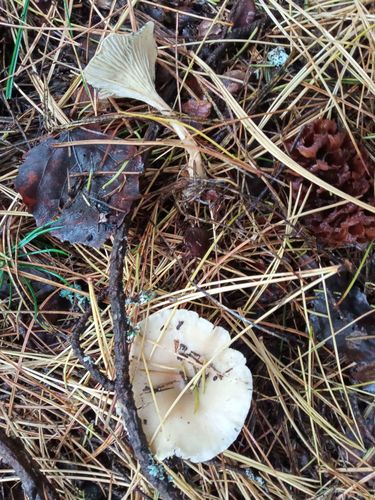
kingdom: Fungi
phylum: Basidiomycota
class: Agaricomycetes
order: Agaricales
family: Tricholomataceae
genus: Clitocybe
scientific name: Clitocybe
